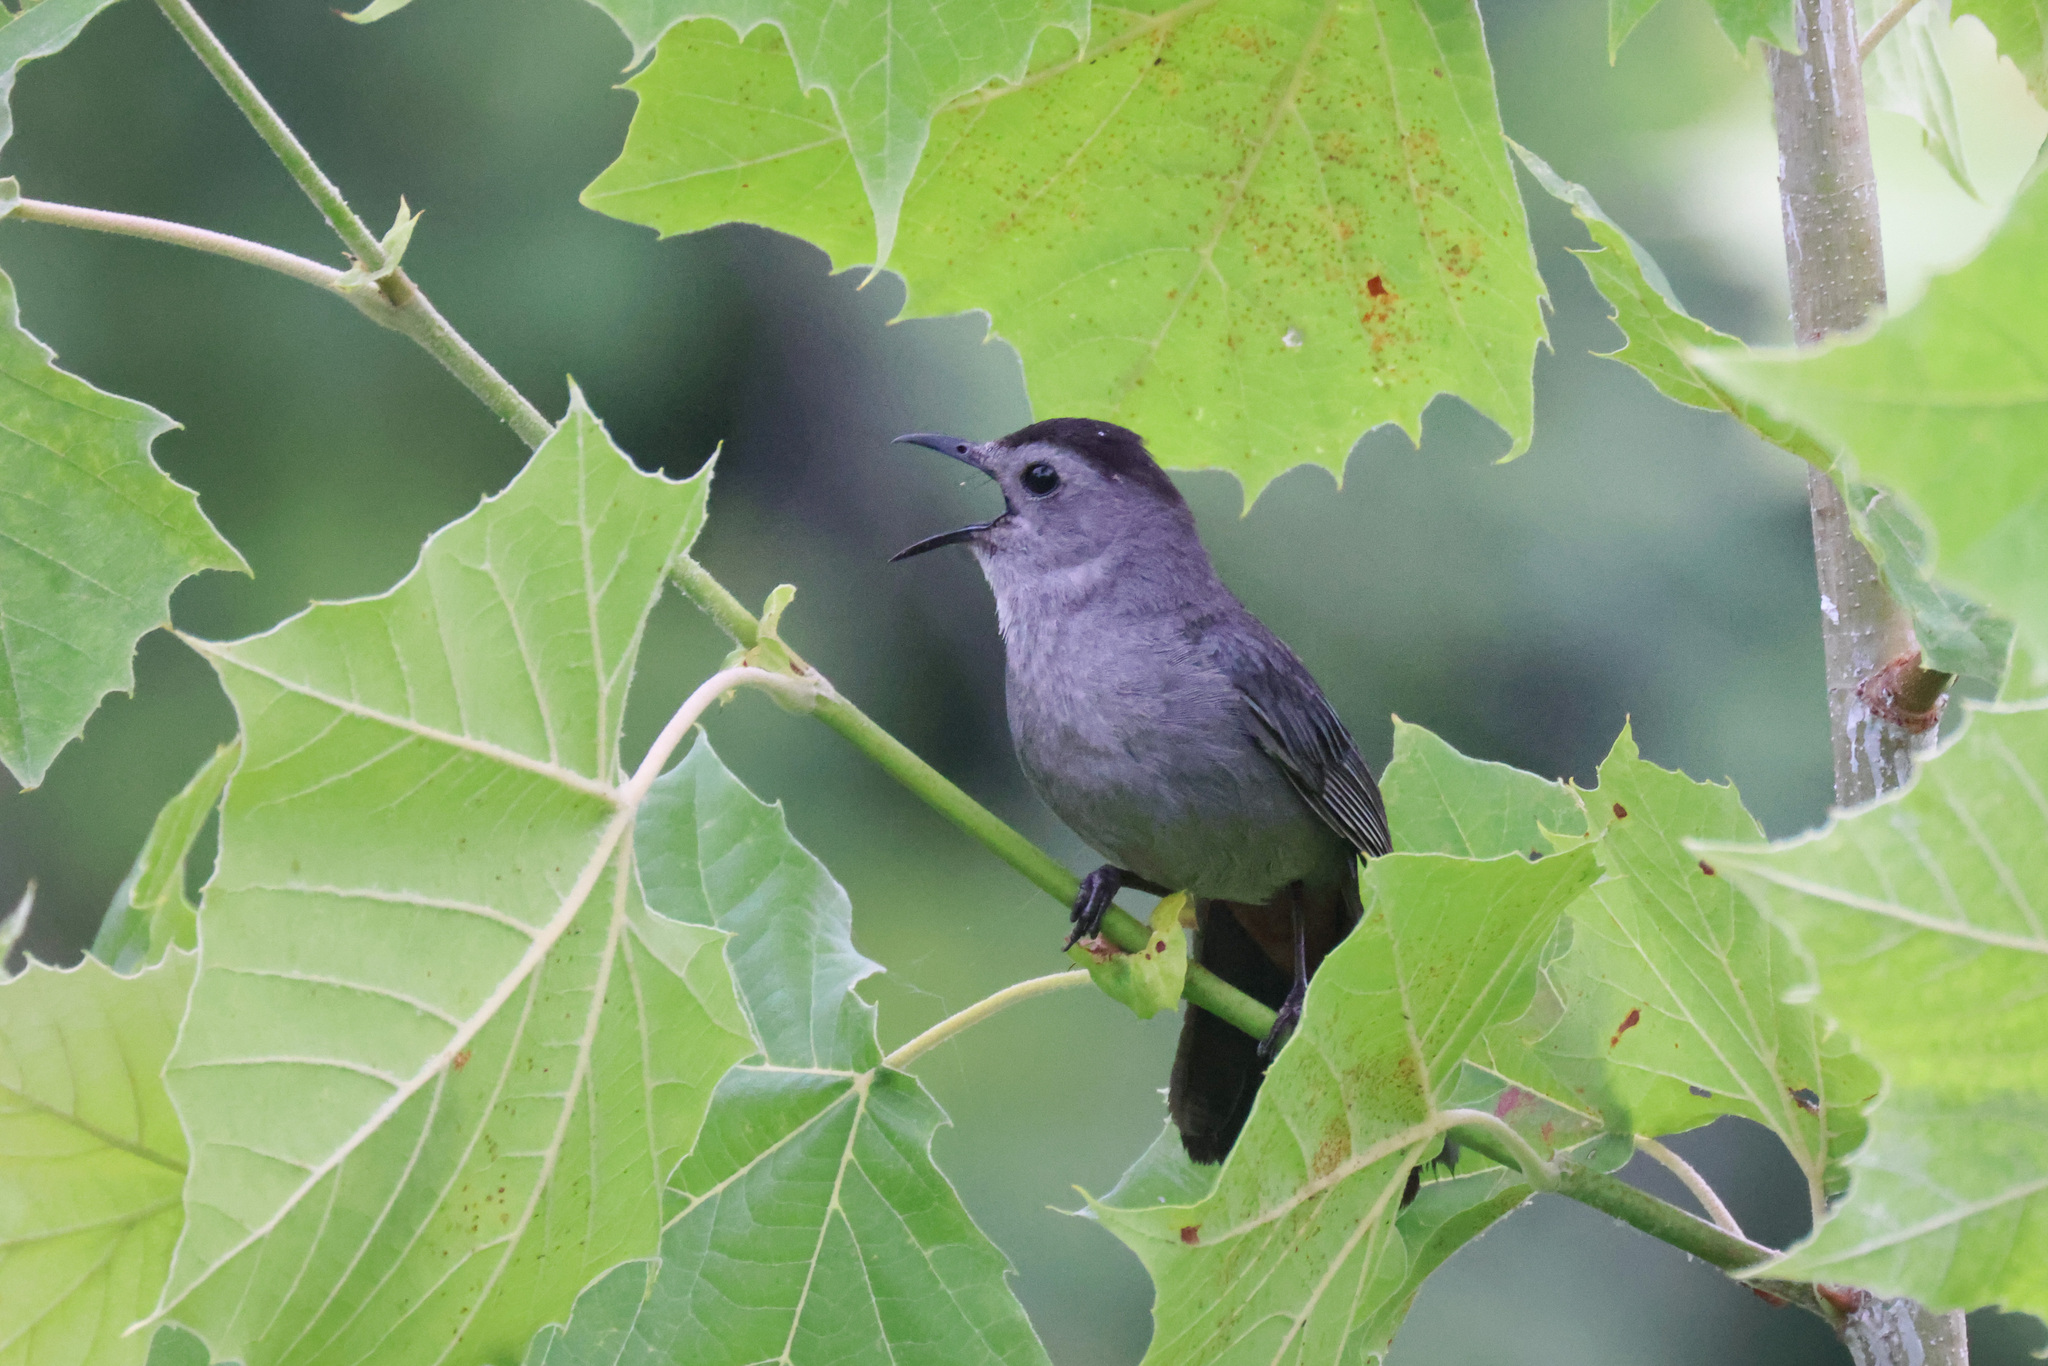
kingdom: Animalia
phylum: Chordata
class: Aves
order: Passeriformes
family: Mimidae
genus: Dumetella
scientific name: Dumetella carolinensis
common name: Gray catbird
